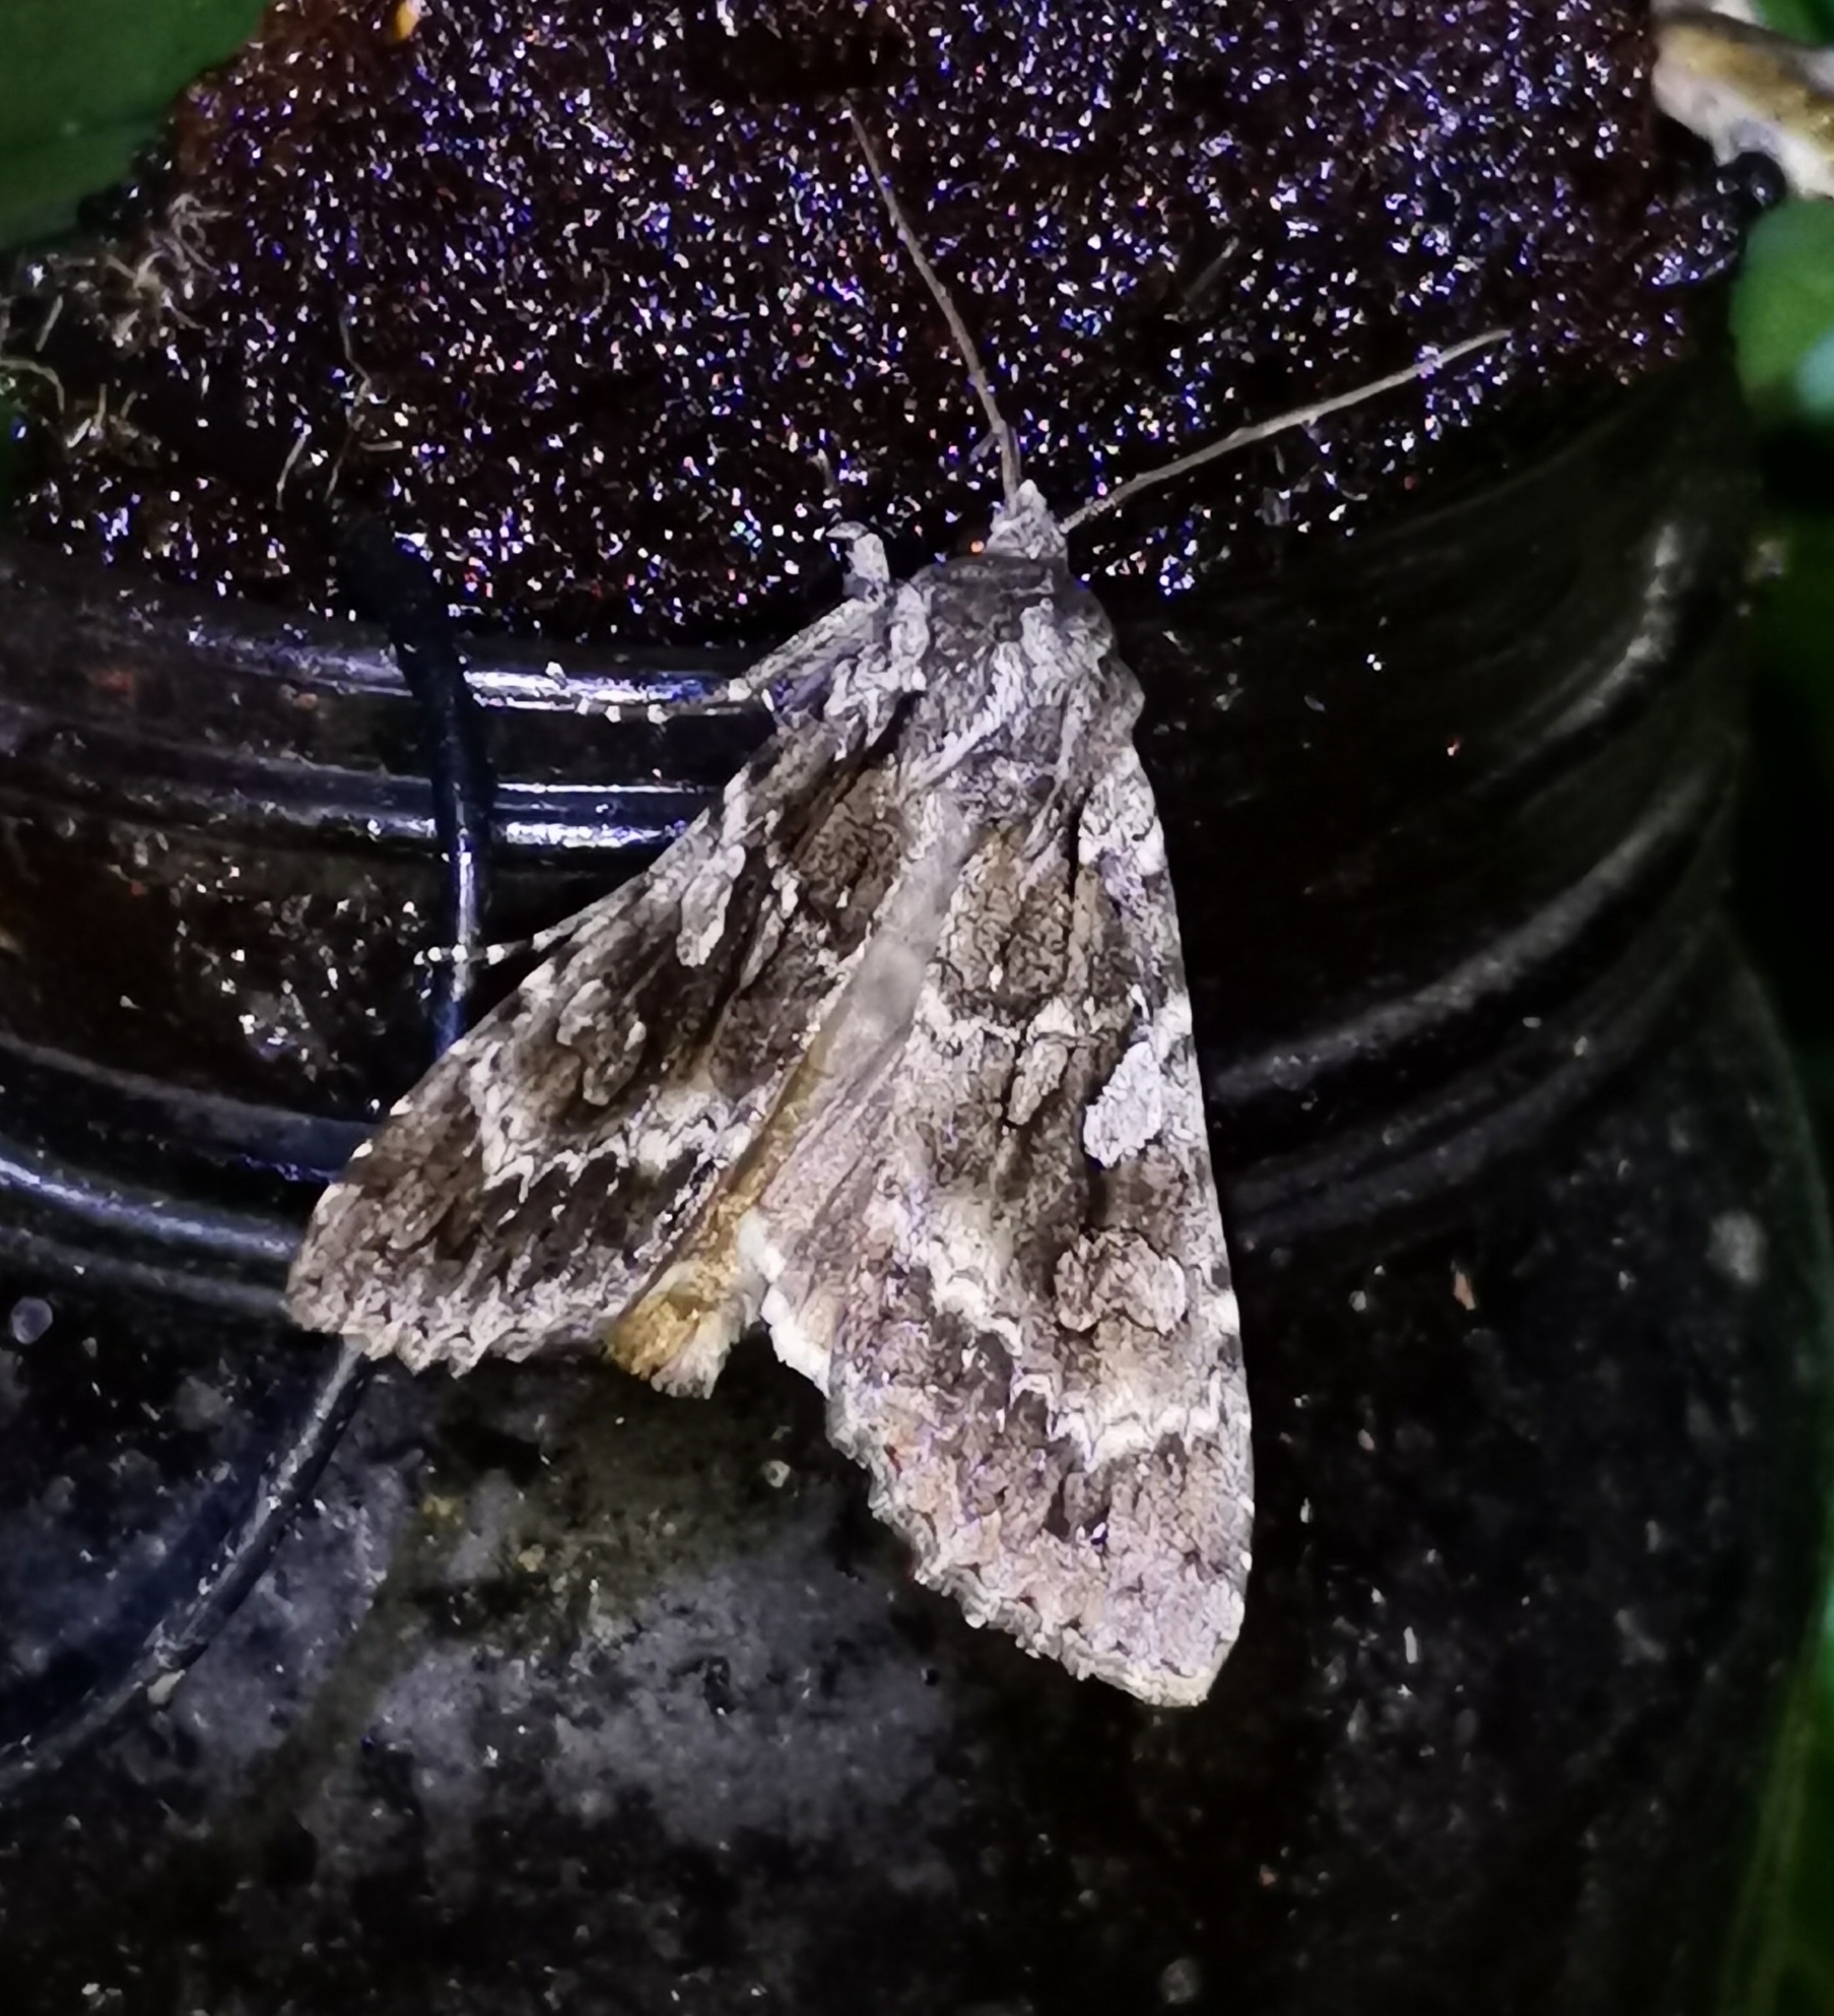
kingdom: Animalia
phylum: Arthropoda
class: Insecta
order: Lepidoptera
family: Noctuidae
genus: Eurois
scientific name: Eurois occulta
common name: Great brocade
